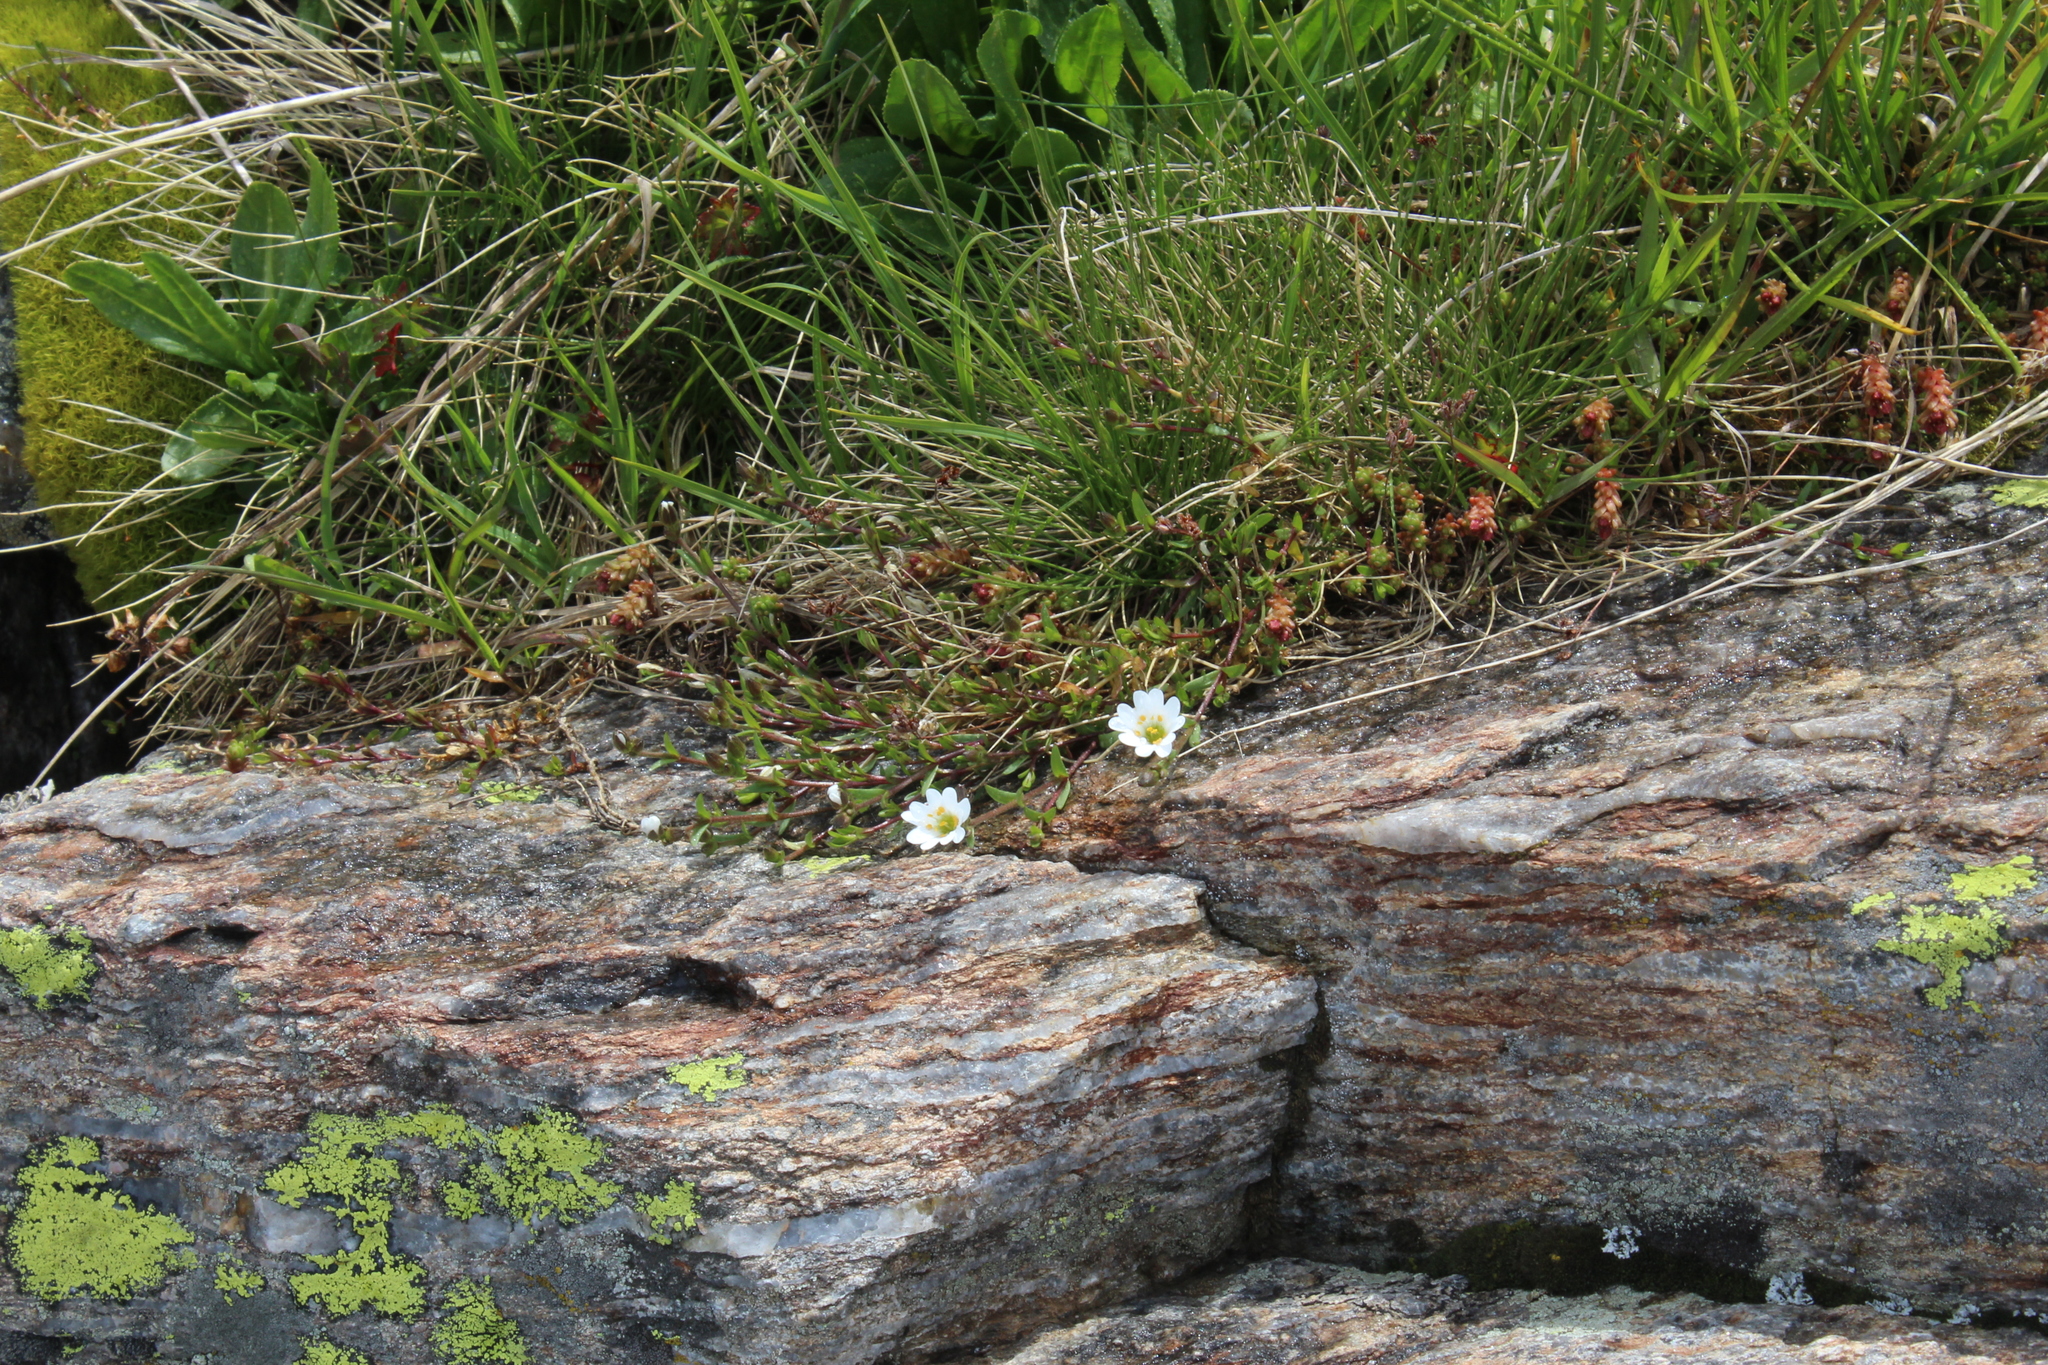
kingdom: Plantae
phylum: Tracheophyta
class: Magnoliopsida
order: Caryophyllales
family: Caryophyllaceae
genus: Dichodon
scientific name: Dichodon cerastoides
